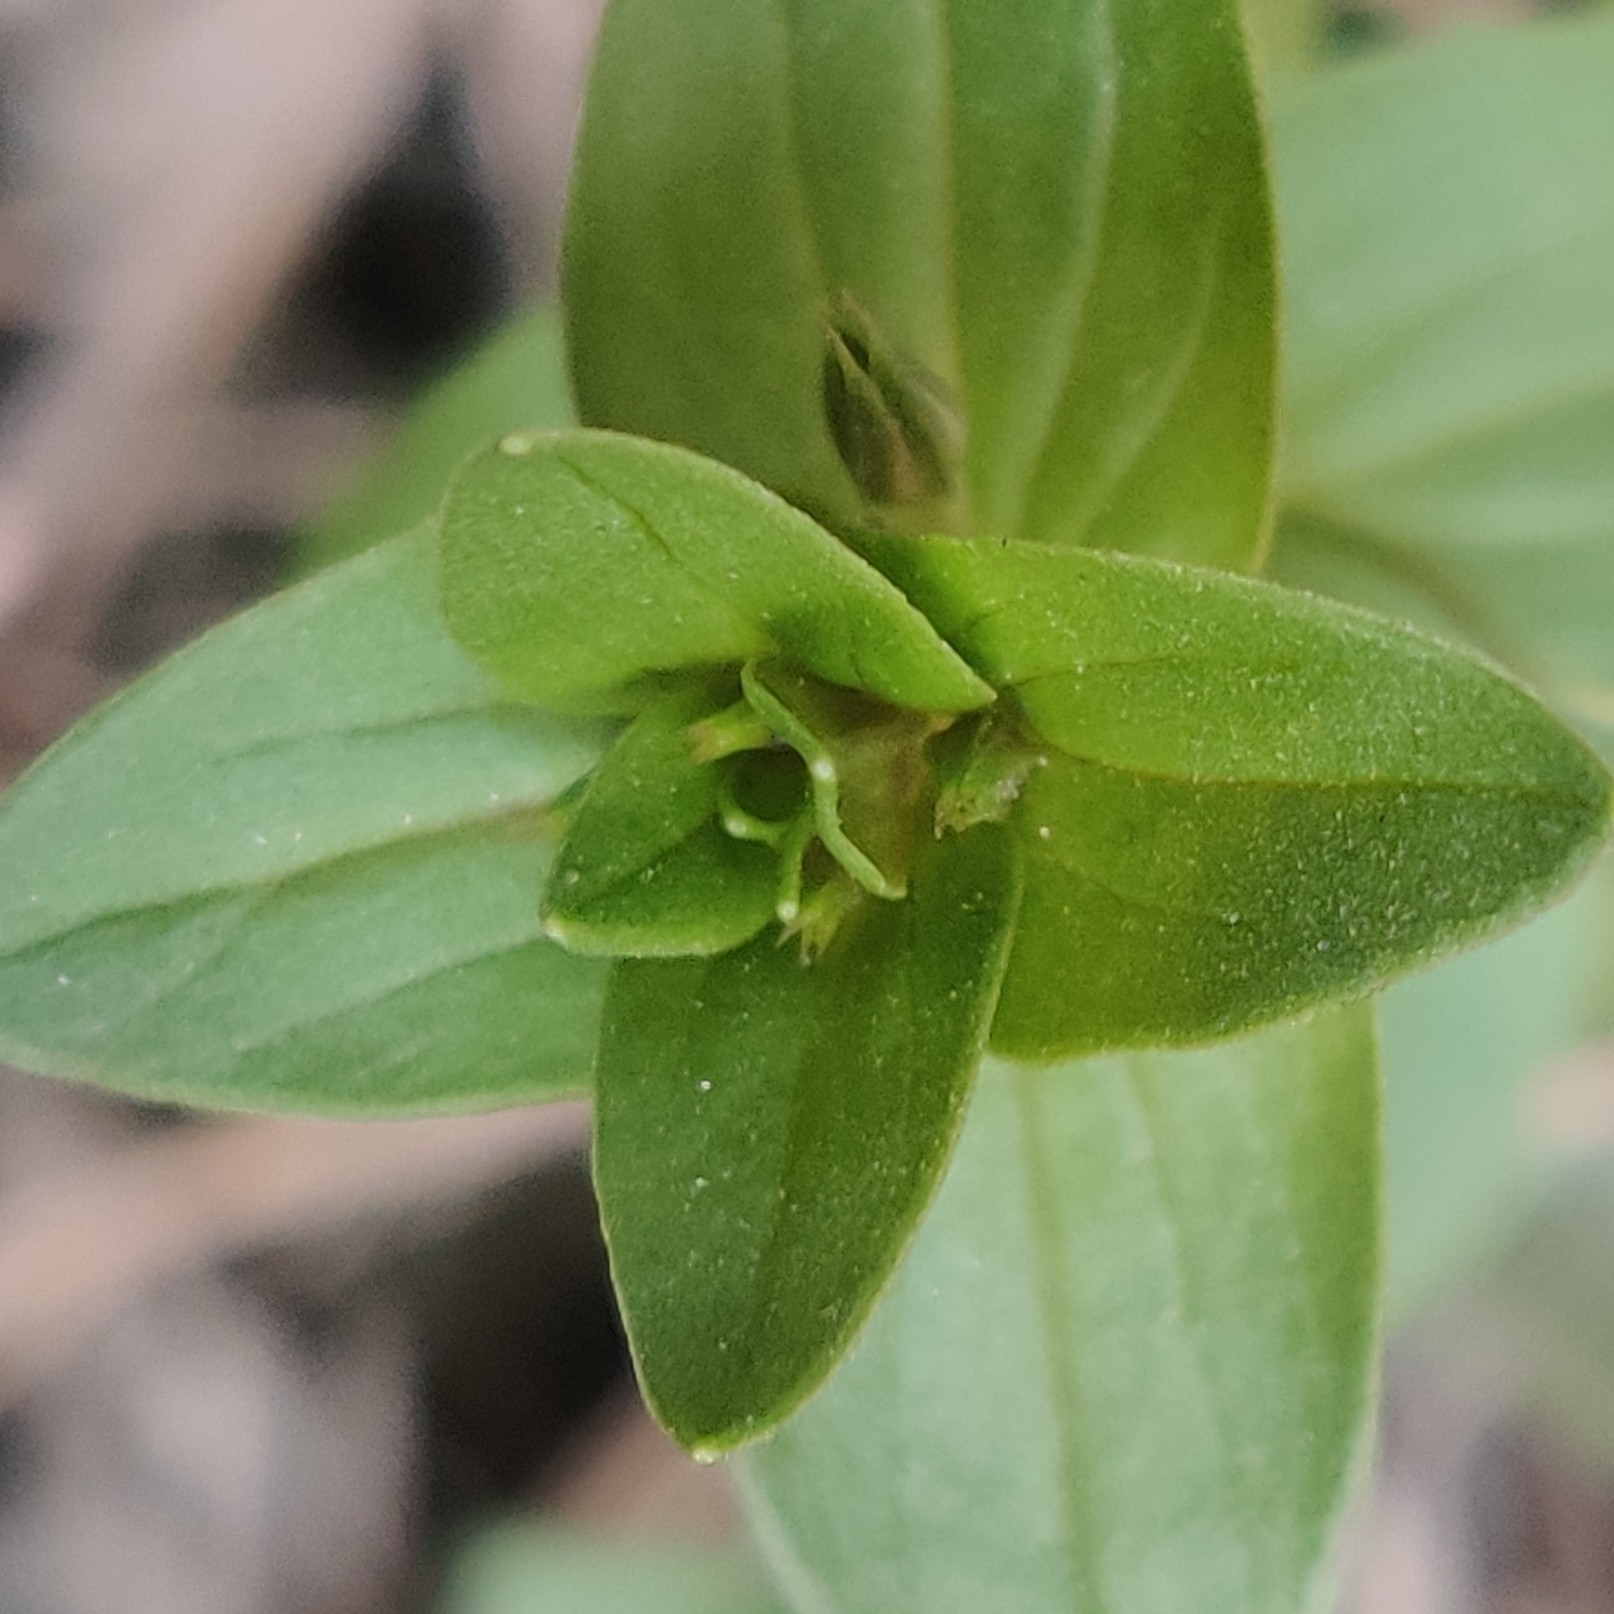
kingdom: Plantae
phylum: Tracheophyta
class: Magnoliopsida
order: Ericales
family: Primulaceae
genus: Lysimachia
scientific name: Lysimachia foemina
